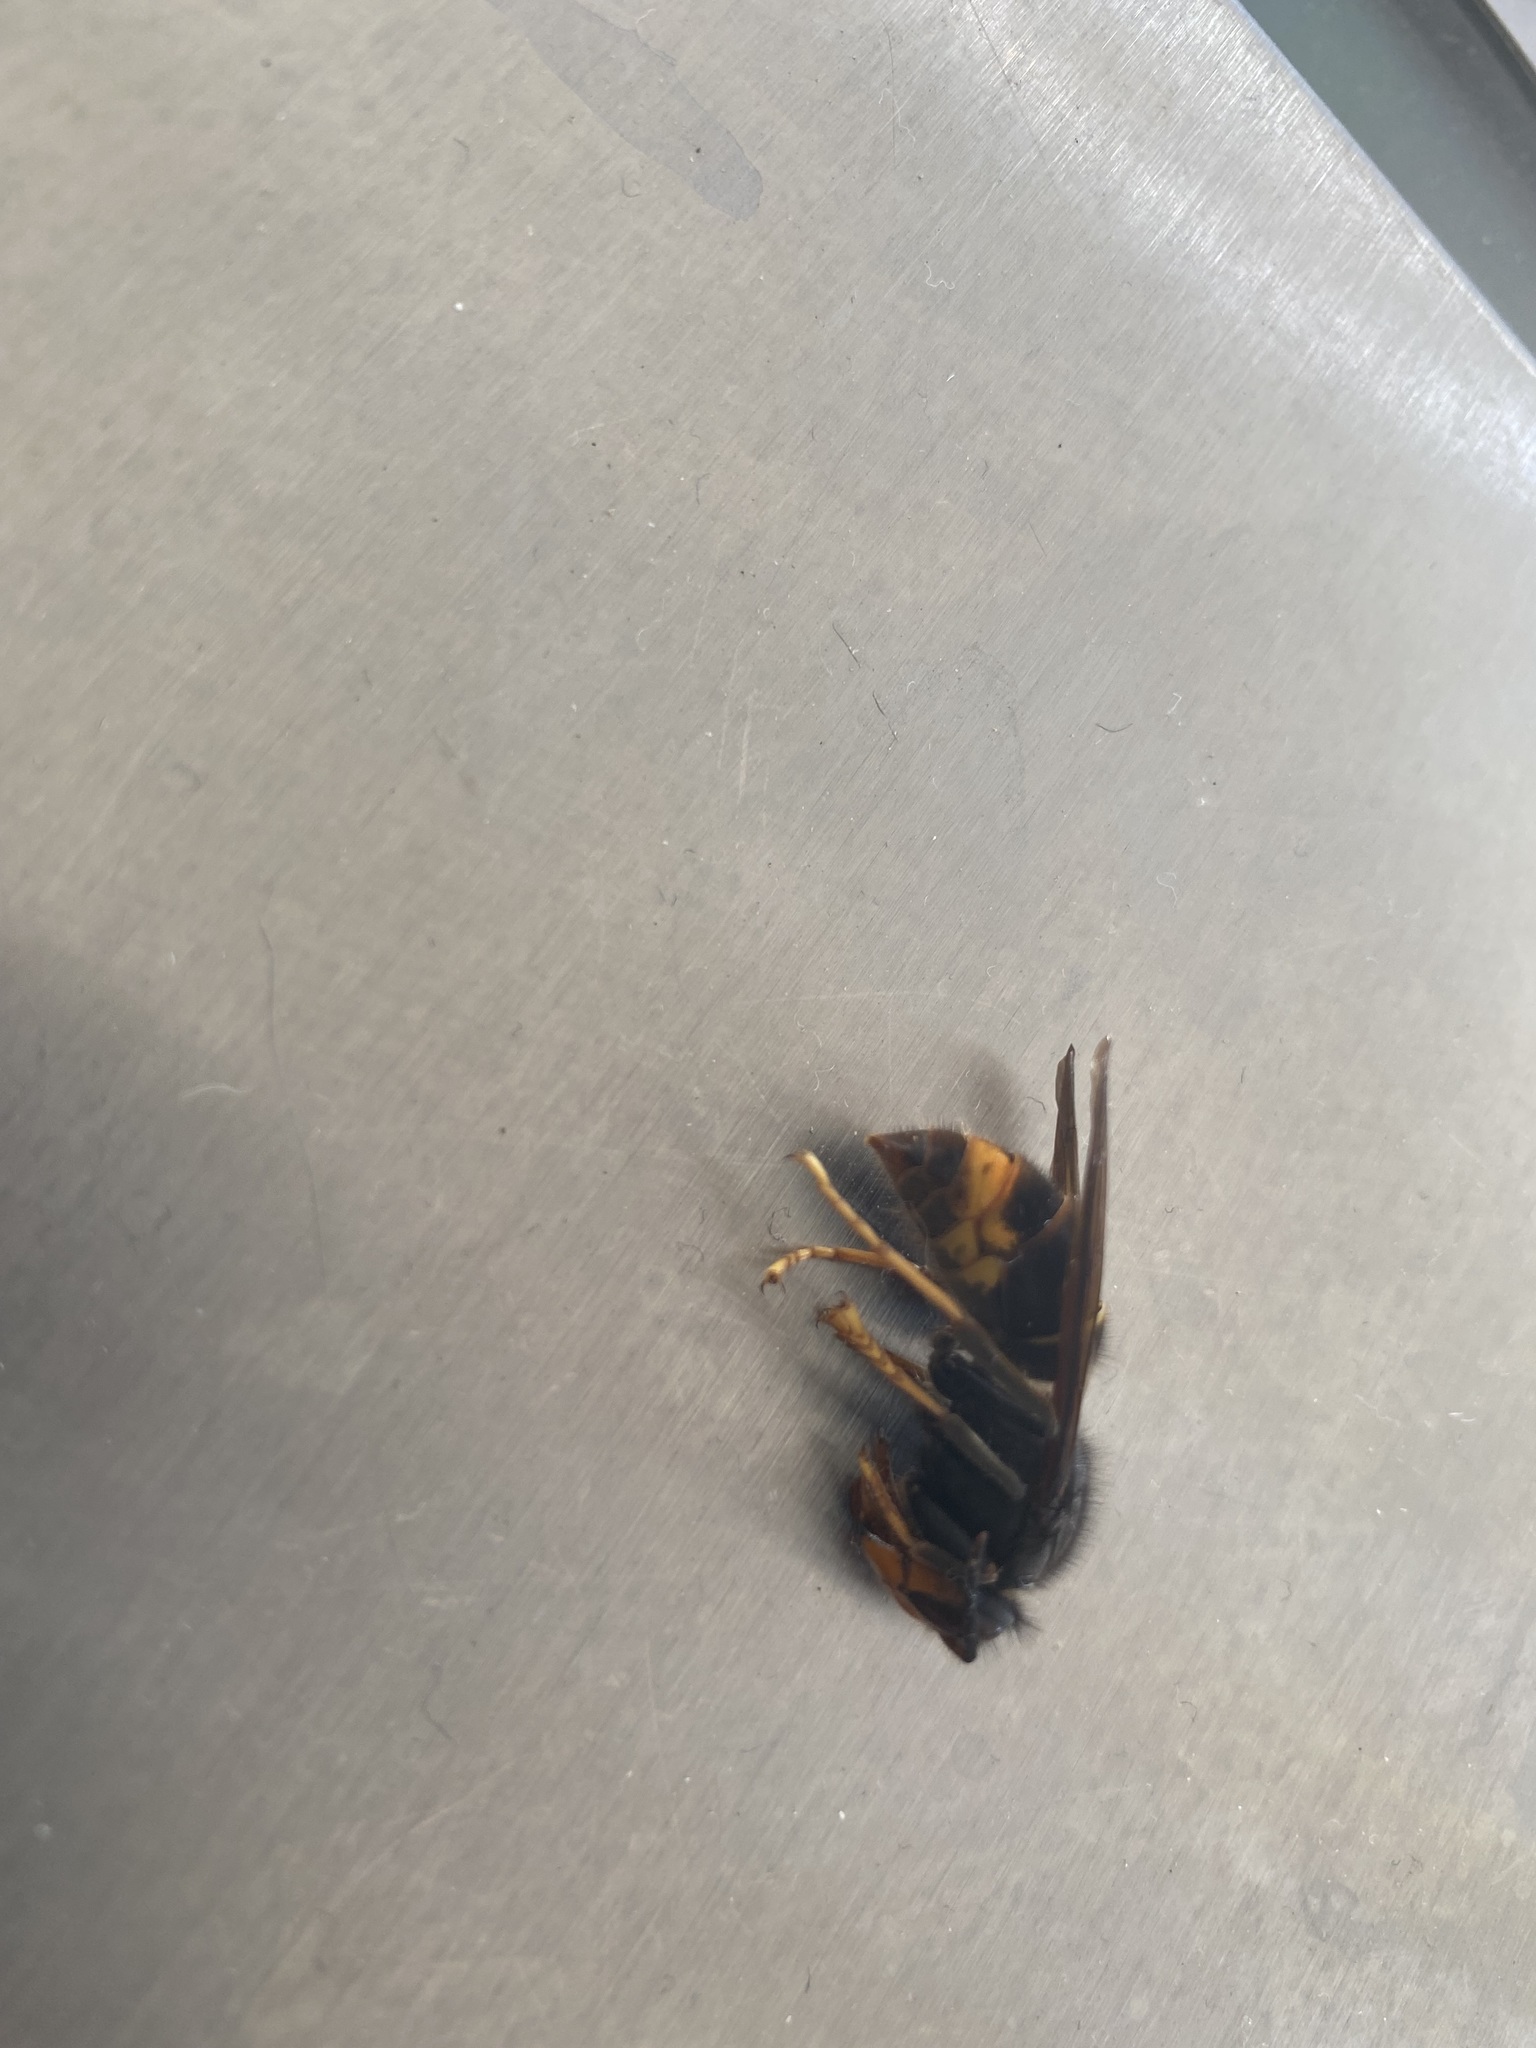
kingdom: Animalia
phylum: Arthropoda
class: Insecta
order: Hymenoptera
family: Vespidae
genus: Vespa
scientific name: Vespa velutina
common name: Asian hornet
